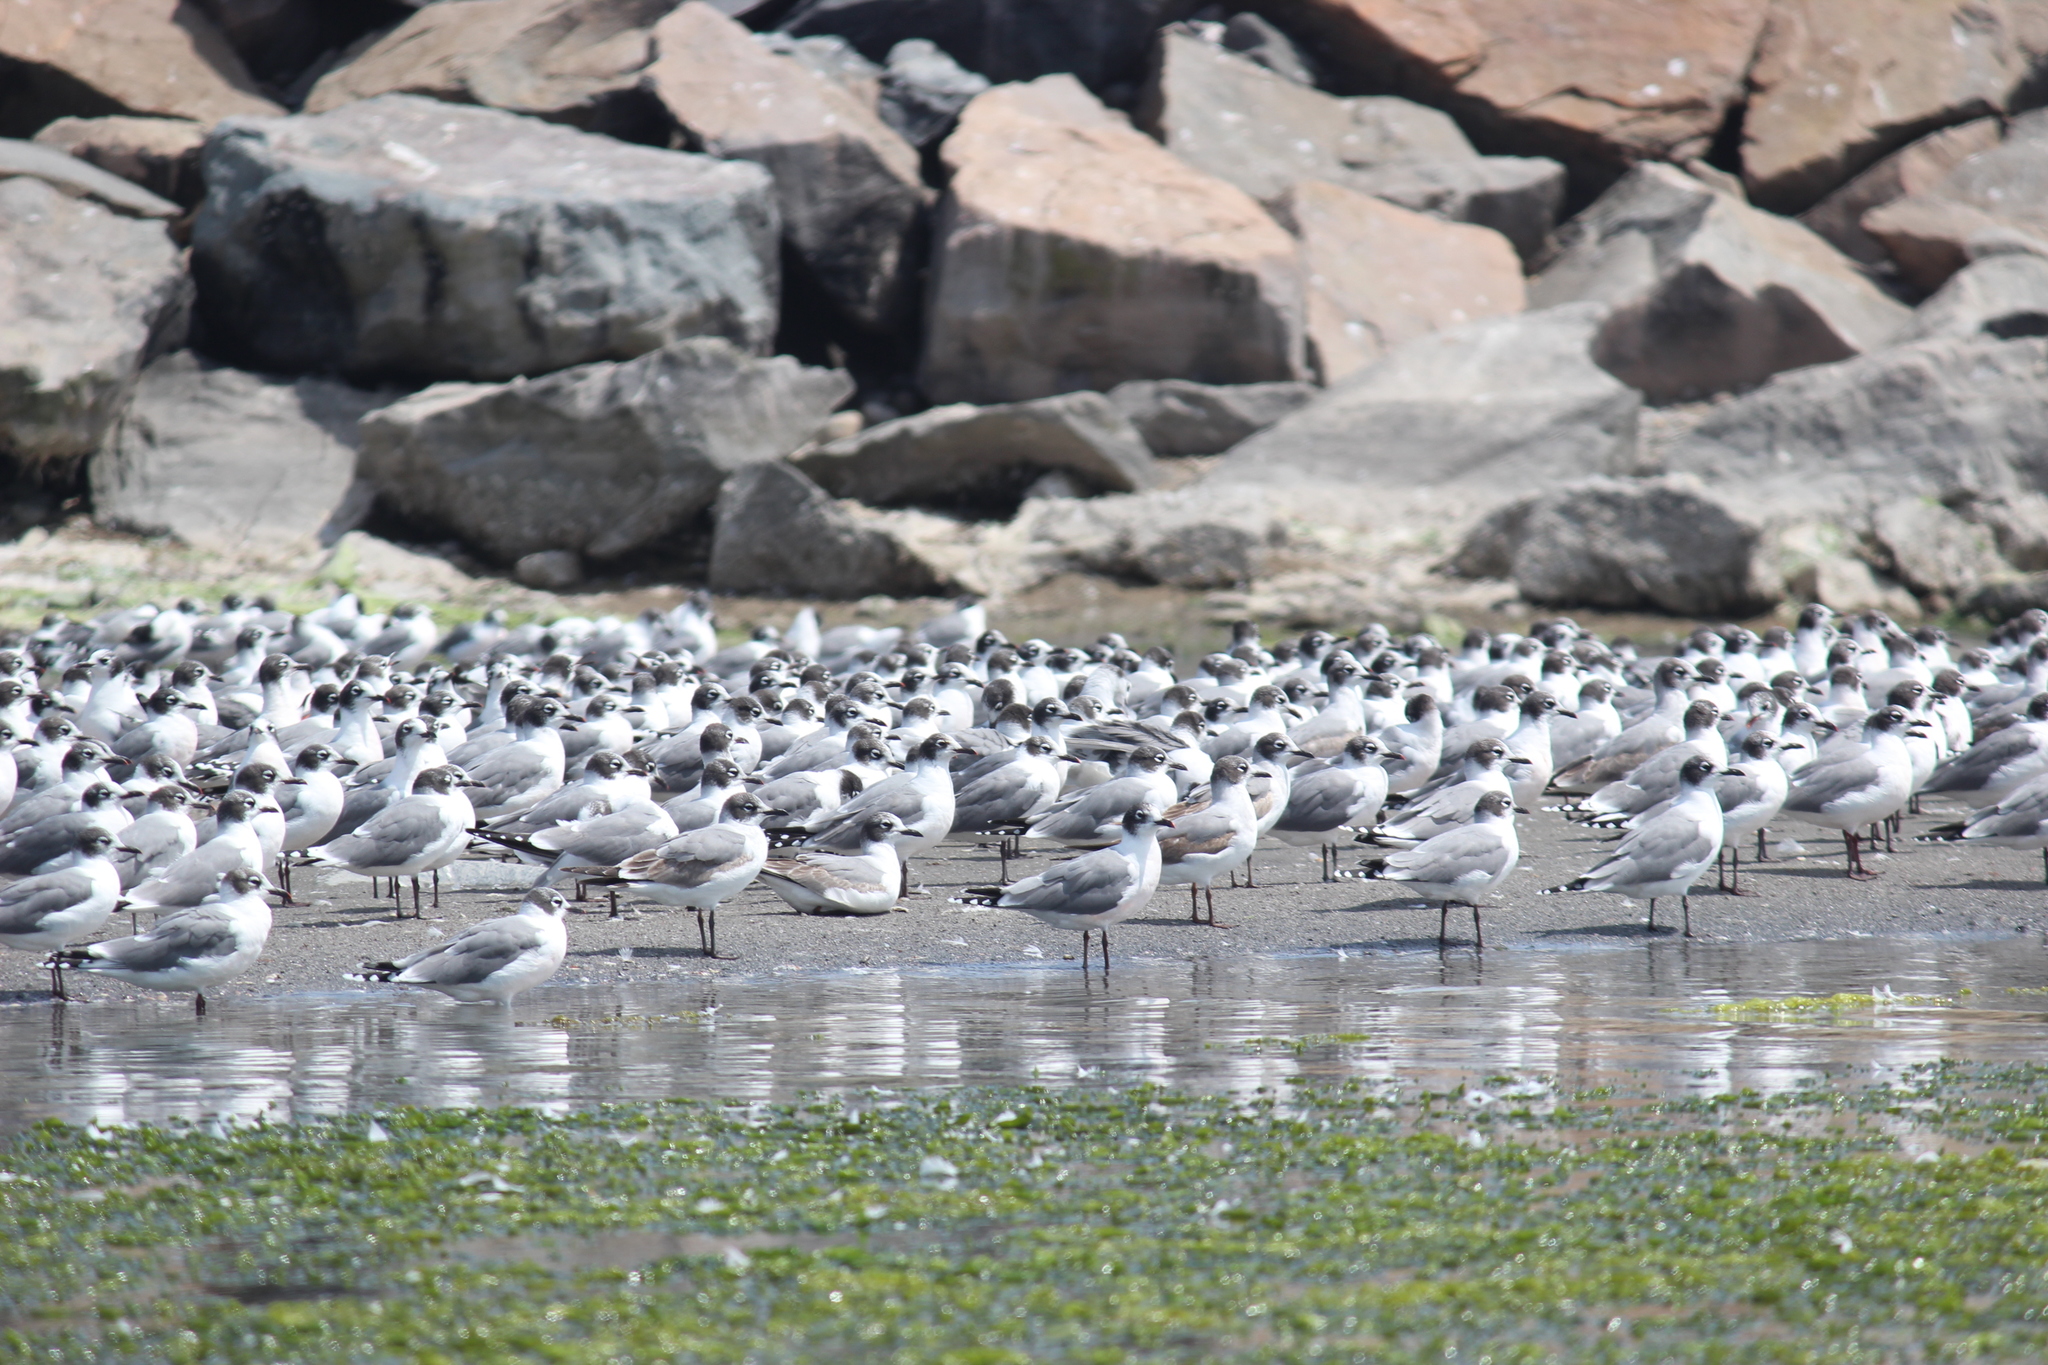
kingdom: Animalia
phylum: Chordata
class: Aves
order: Charadriiformes
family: Laridae
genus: Leucophaeus
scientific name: Leucophaeus pipixcan
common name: Franklin's gull
